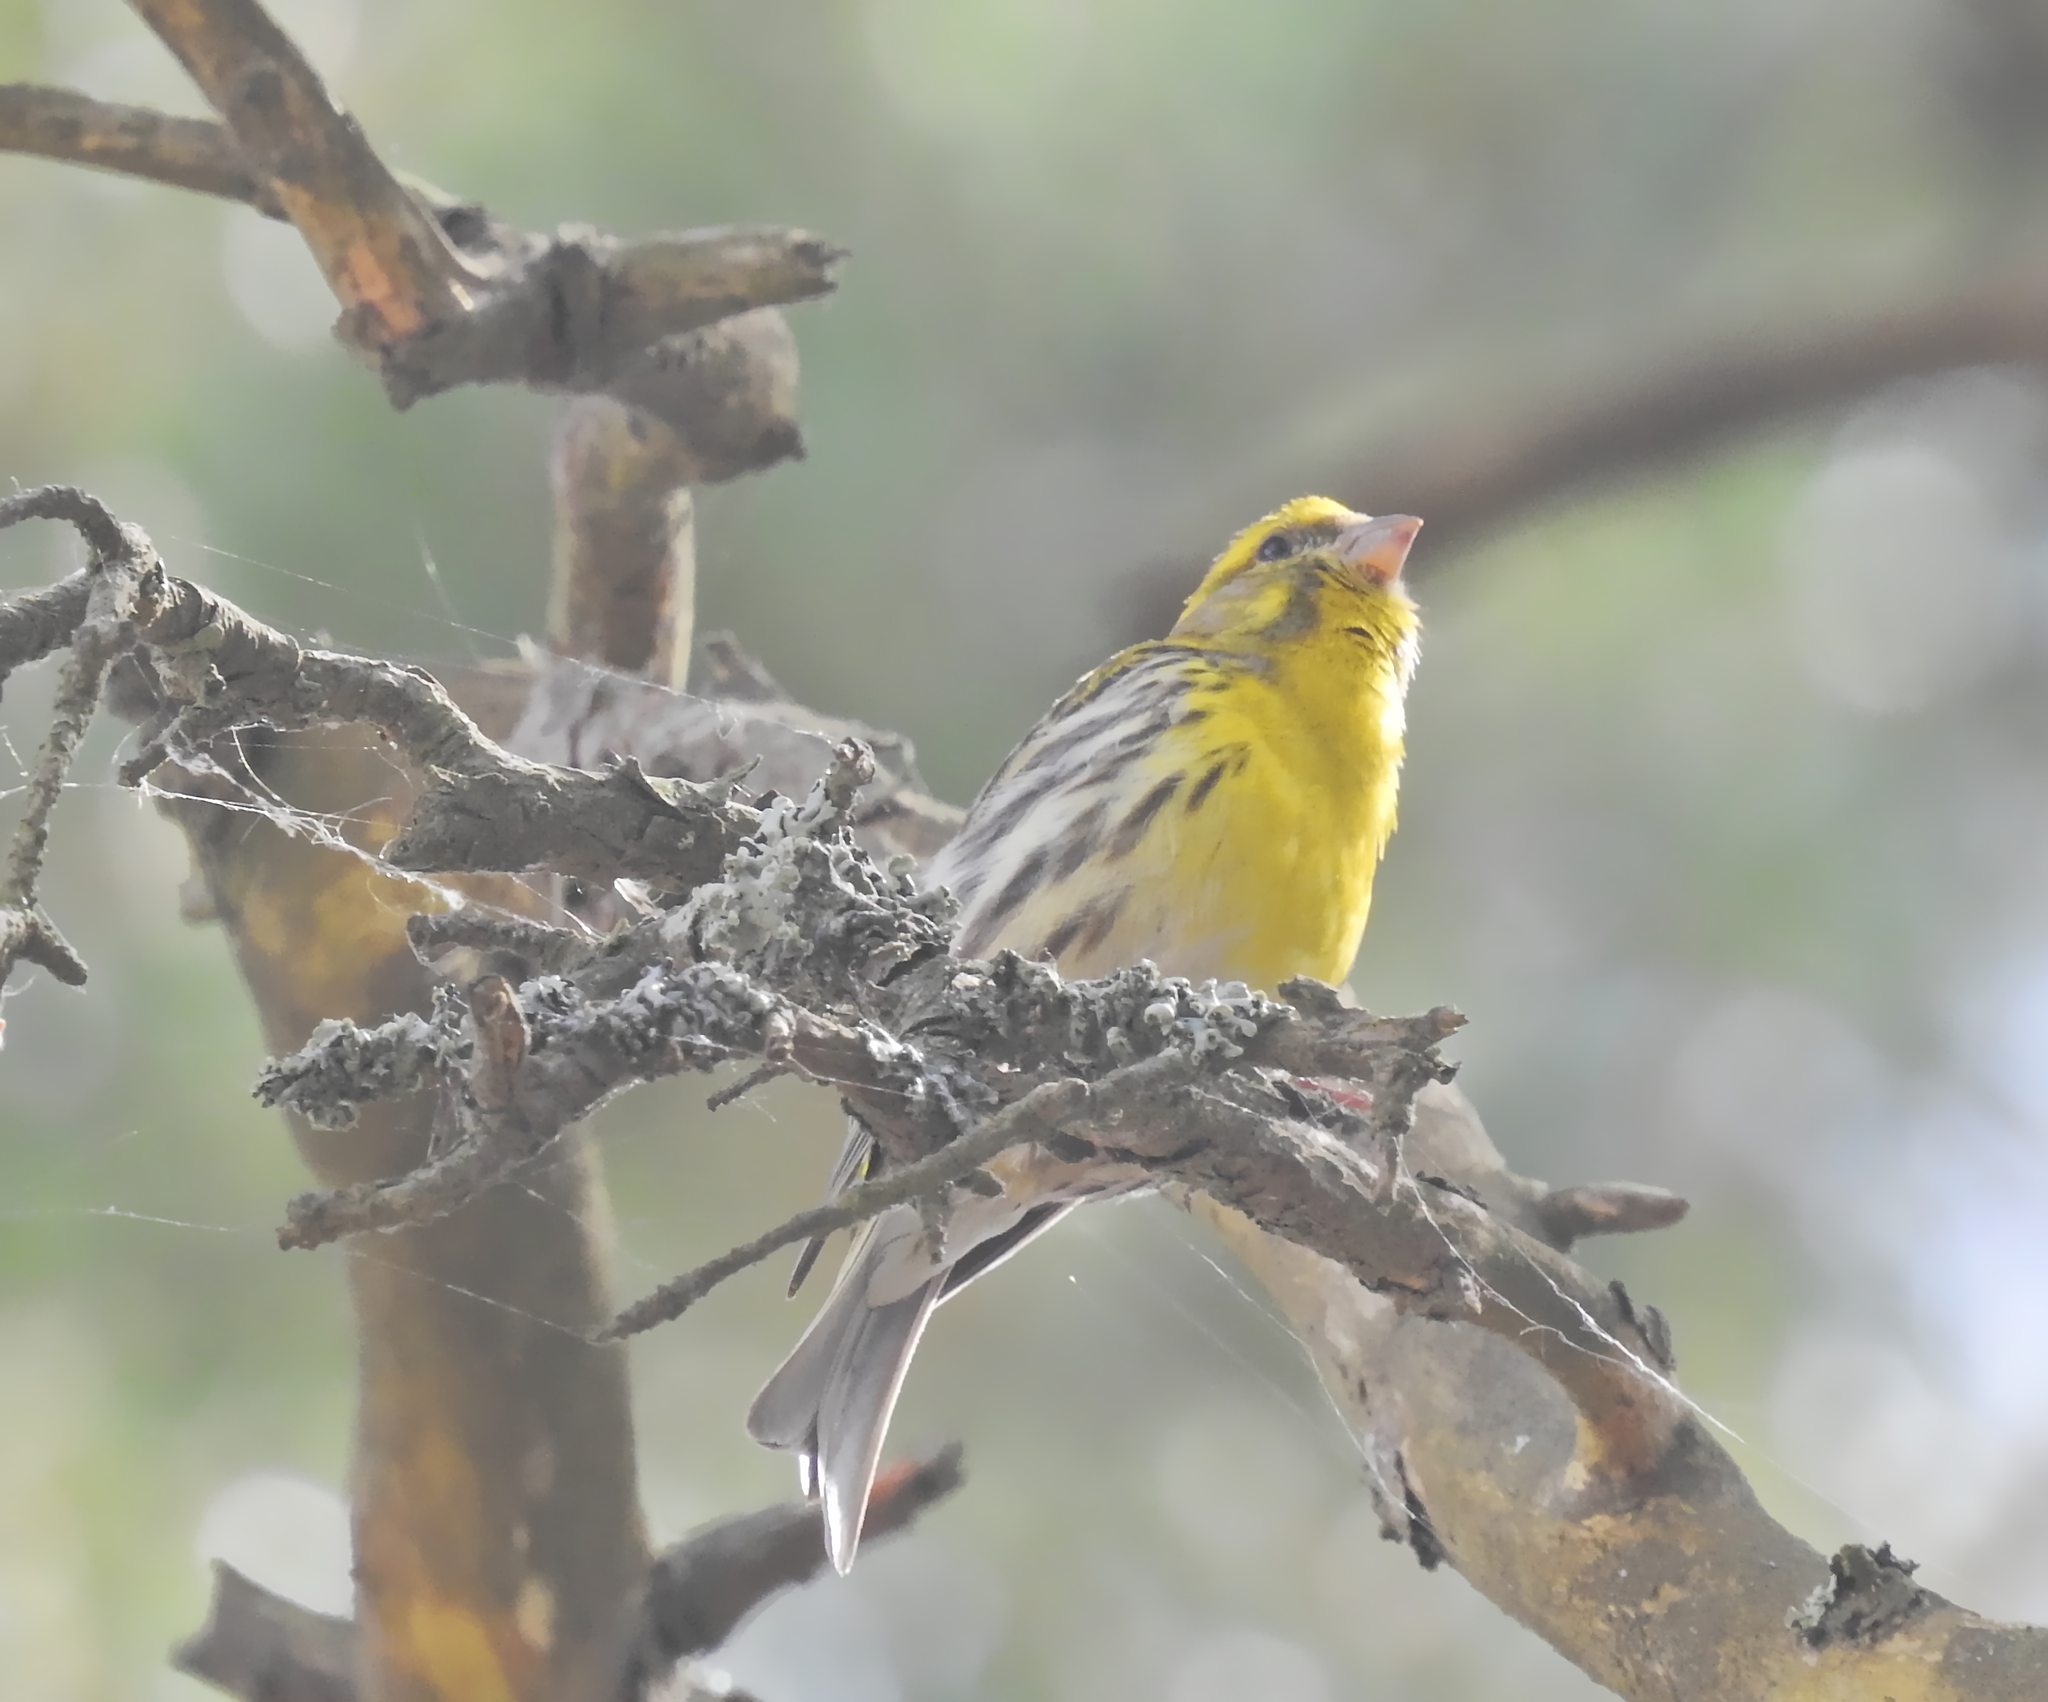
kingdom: Animalia
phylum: Chordata
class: Aves
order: Passeriformes
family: Fringillidae
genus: Serinus
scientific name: Serinus serinus
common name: European serin
